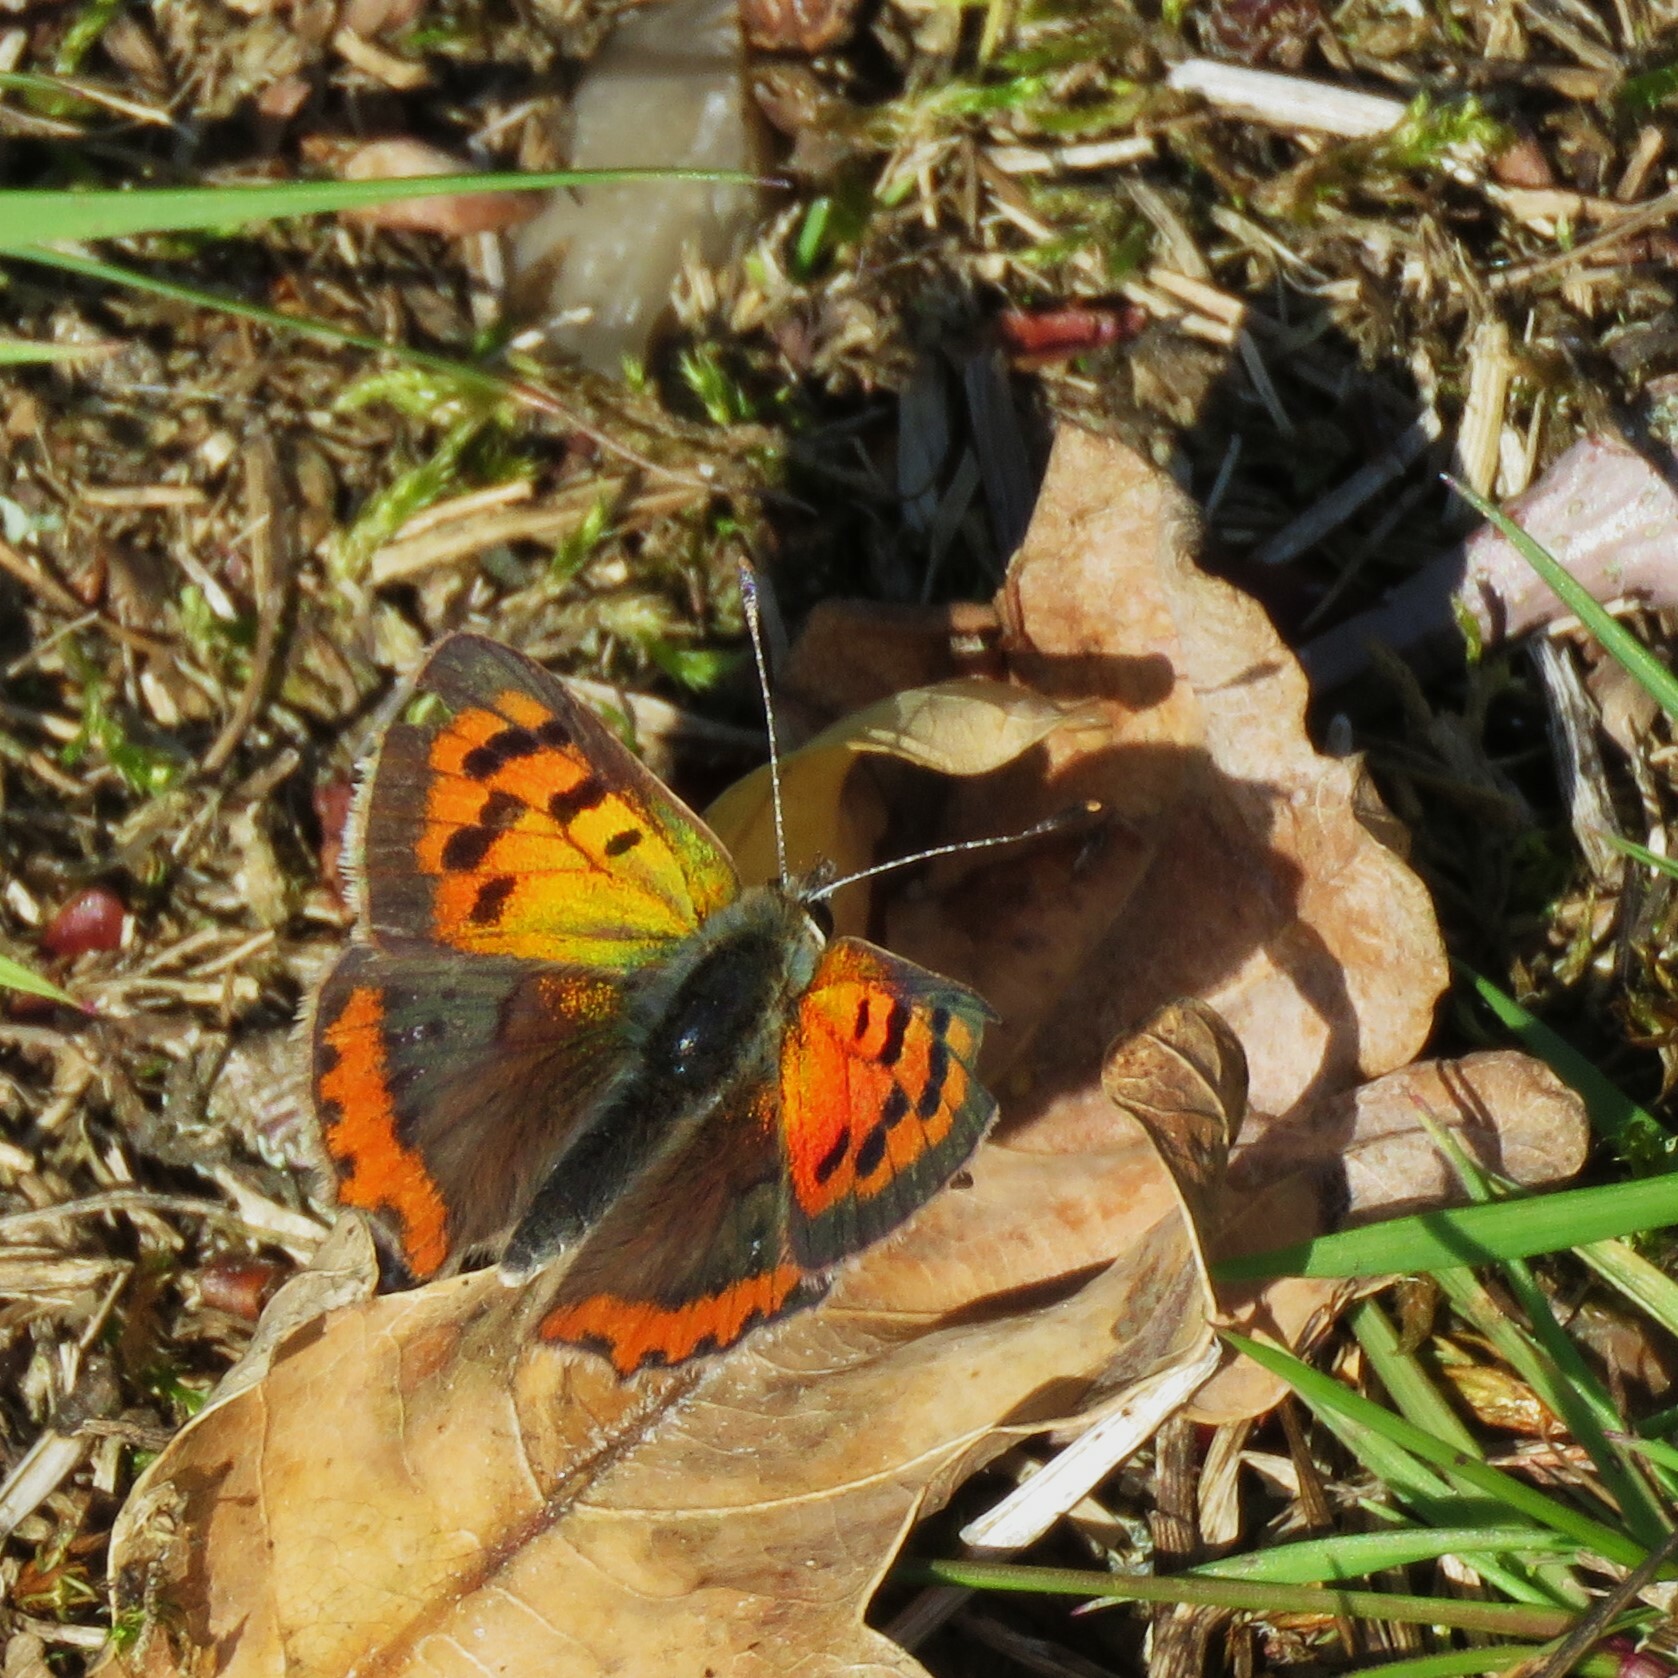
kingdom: Animalia
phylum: Arthropoda
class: Insecta
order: Lepidoptera
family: Lycaenidae
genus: Lycaena
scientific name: Lycaena phlaeas
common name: Small copper
